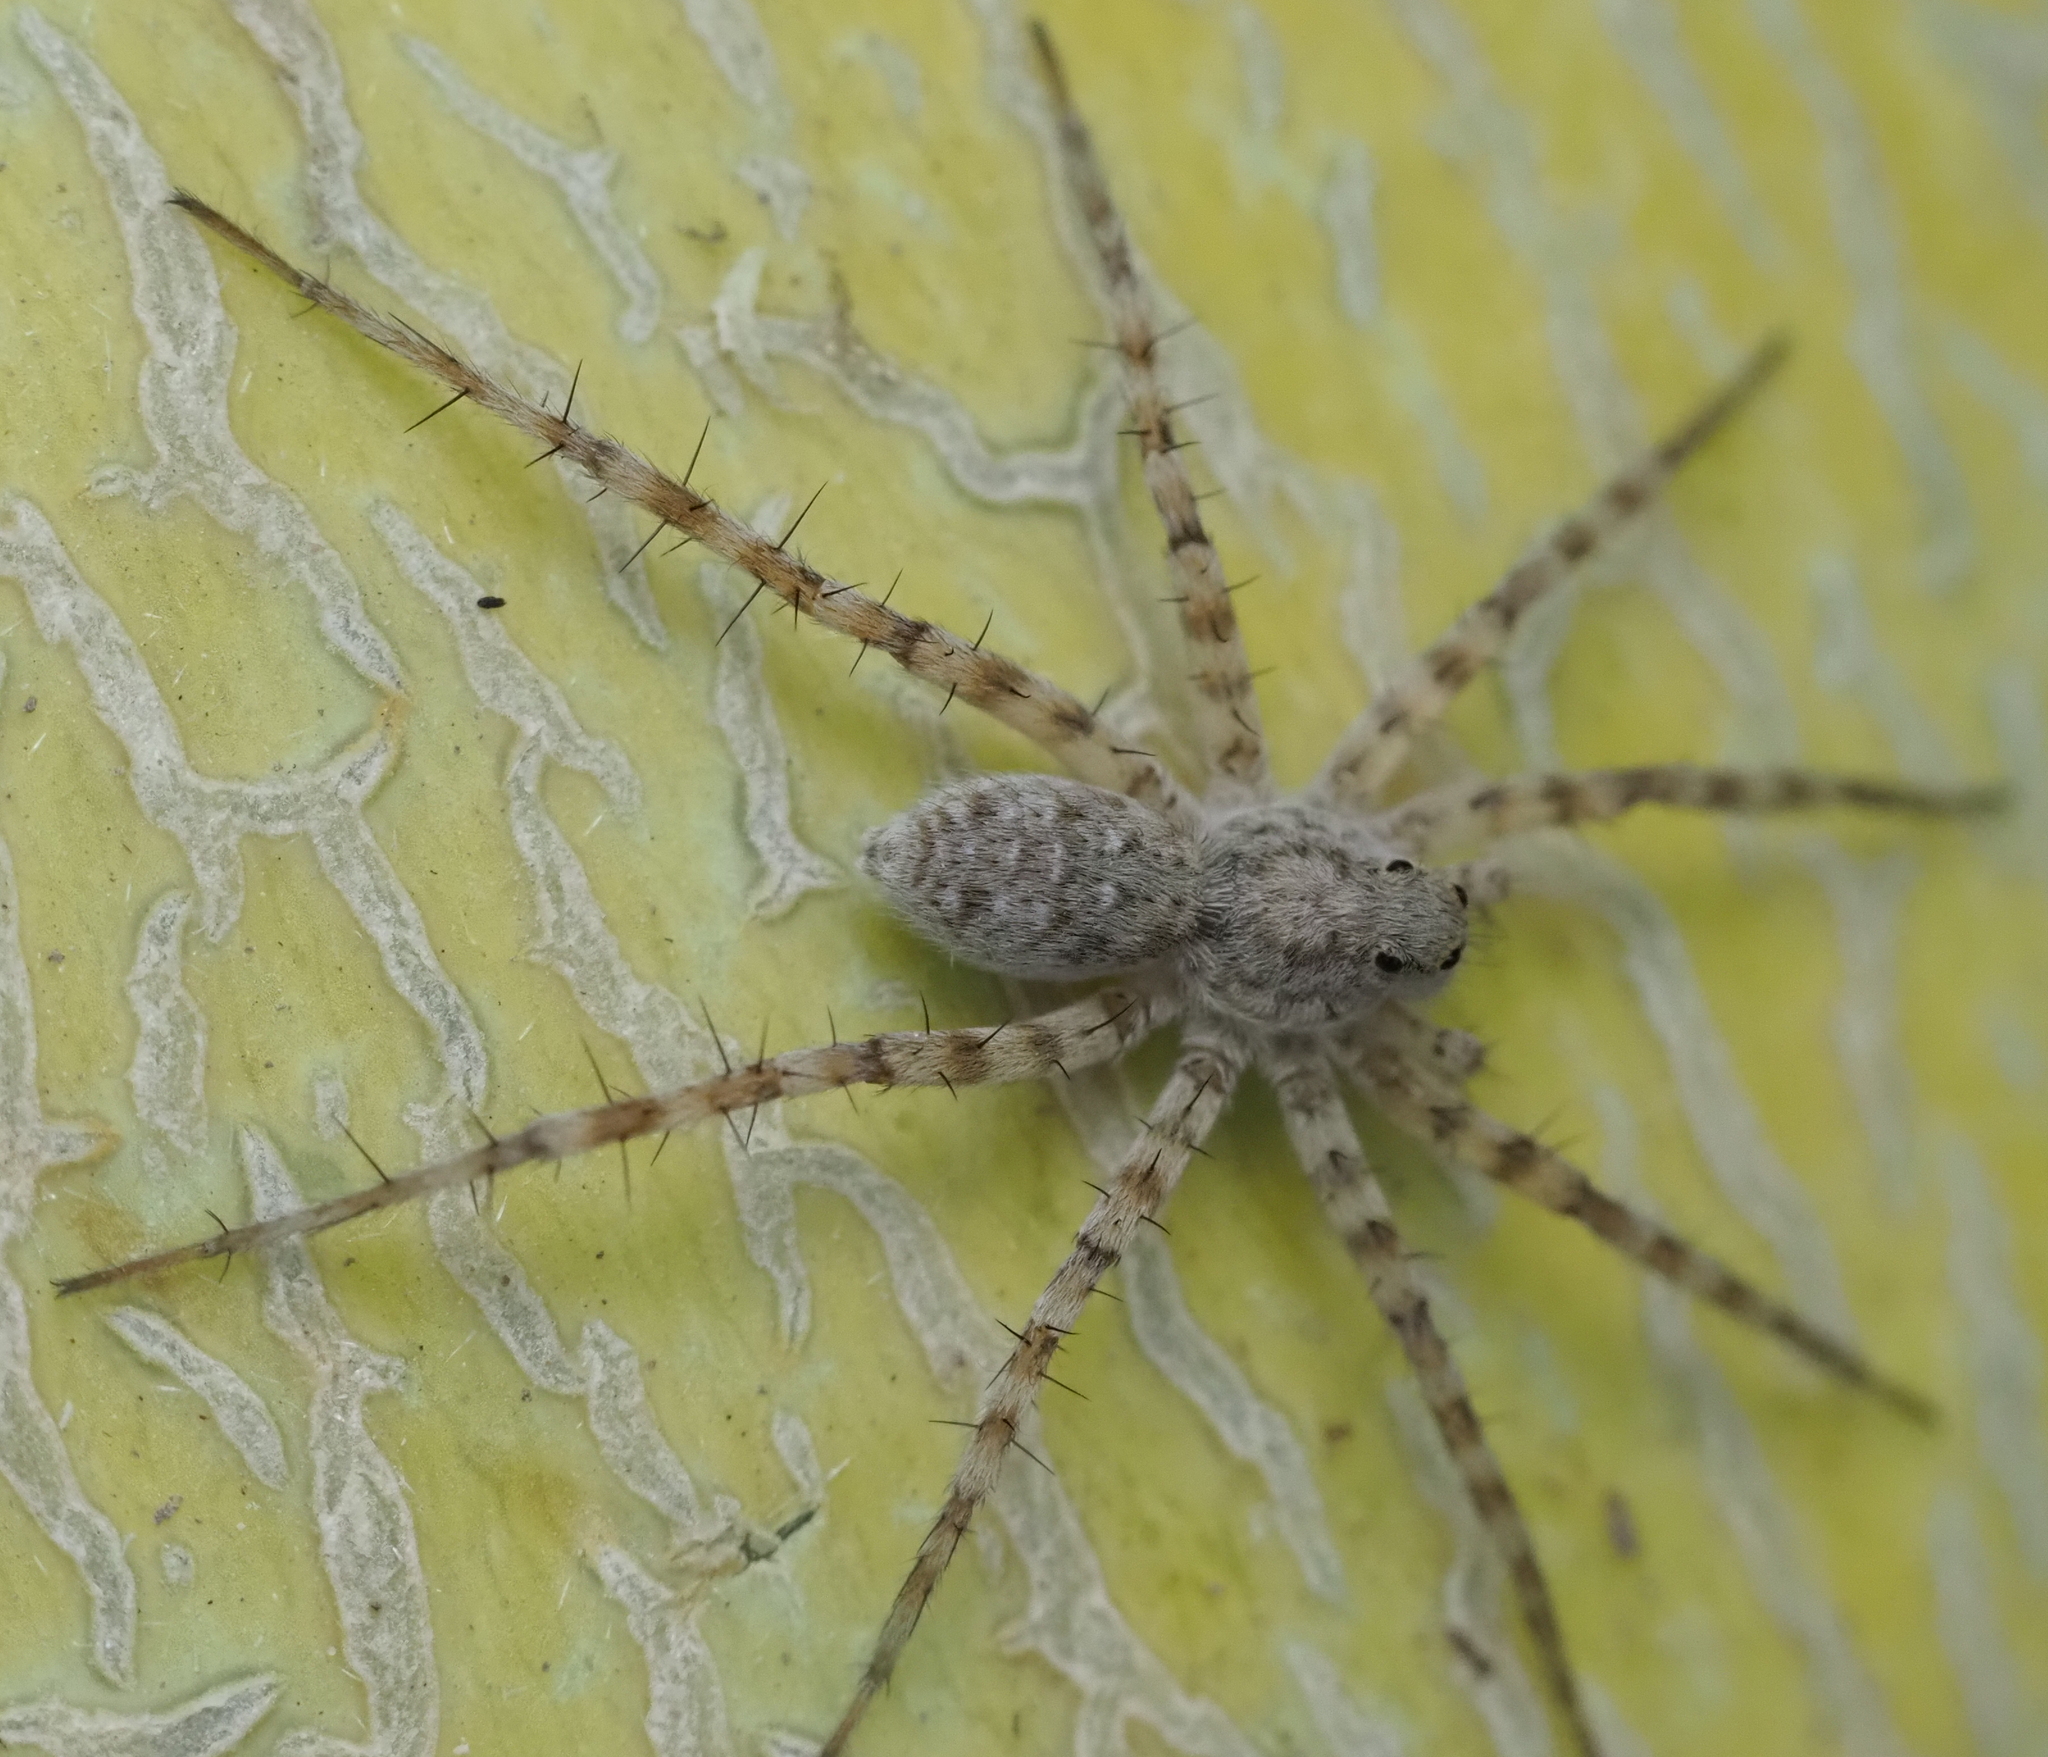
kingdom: Animalia
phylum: Arthropoda
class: Arachnida
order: Araneae
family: Lycosidae
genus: Pardosa
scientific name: Pardosa mercurialis
